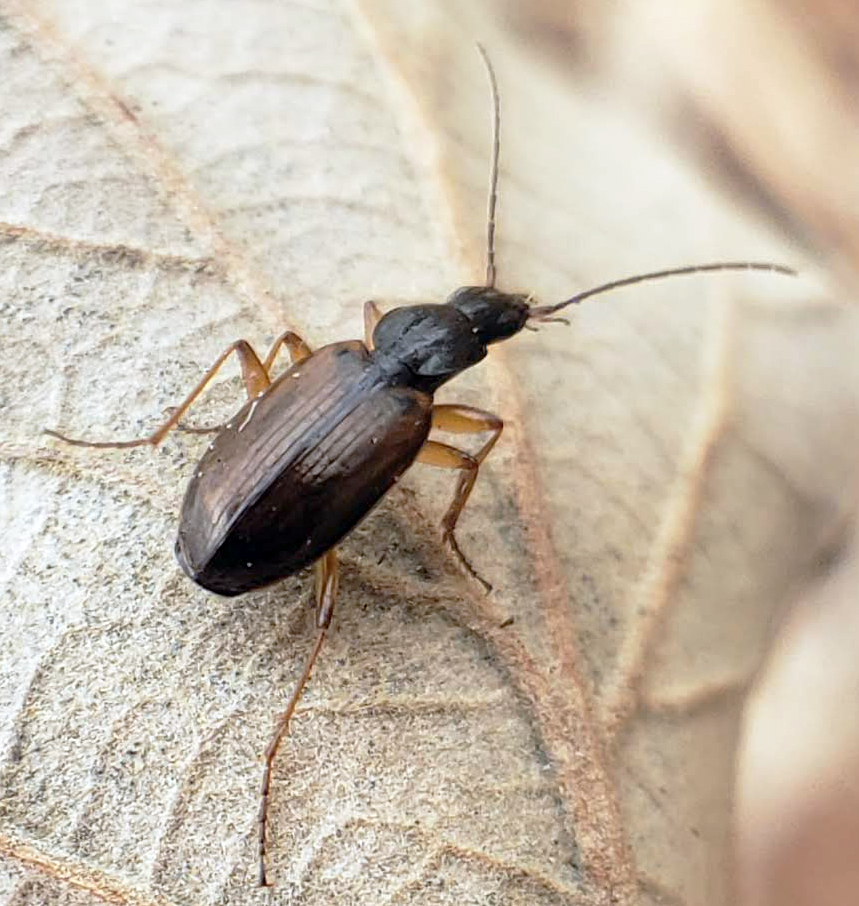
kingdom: Animalia
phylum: Arthropoda
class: Insecta
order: Coleoptera
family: Carabidae
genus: Agonum
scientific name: Agonum gratiosum
